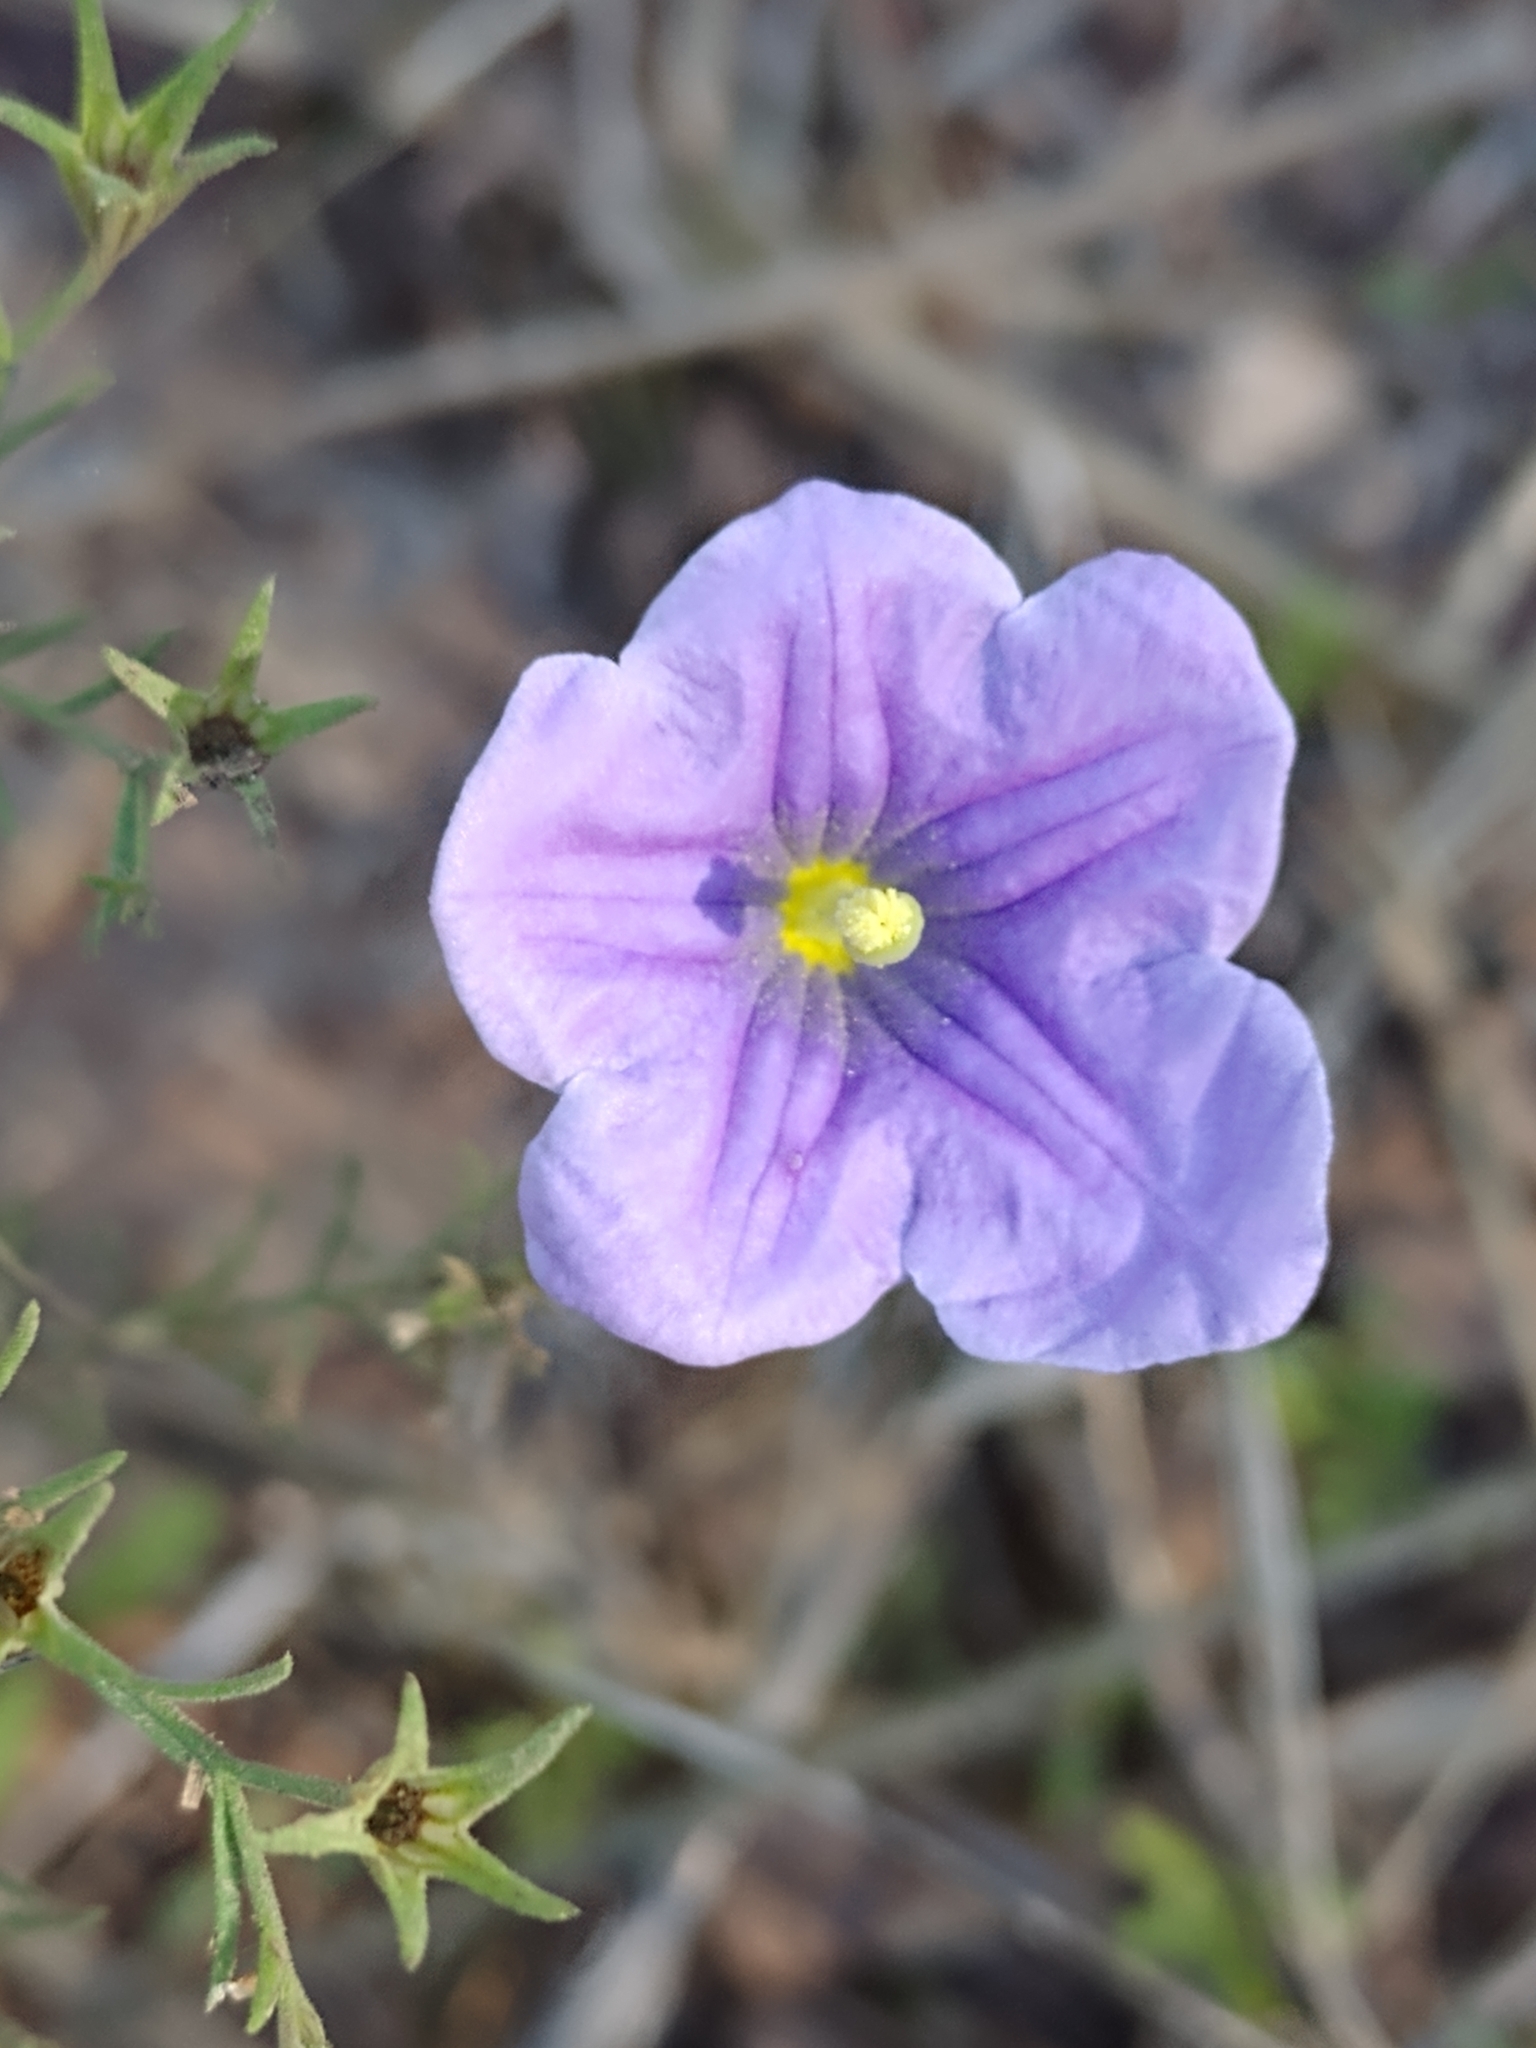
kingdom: Plantae
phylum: Tracheophyta
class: Magnoliopsida
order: Solanales
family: Solanaceae
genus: Nierembergia
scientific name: Nierembergia linariifolia
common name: Dwarf cupflower
